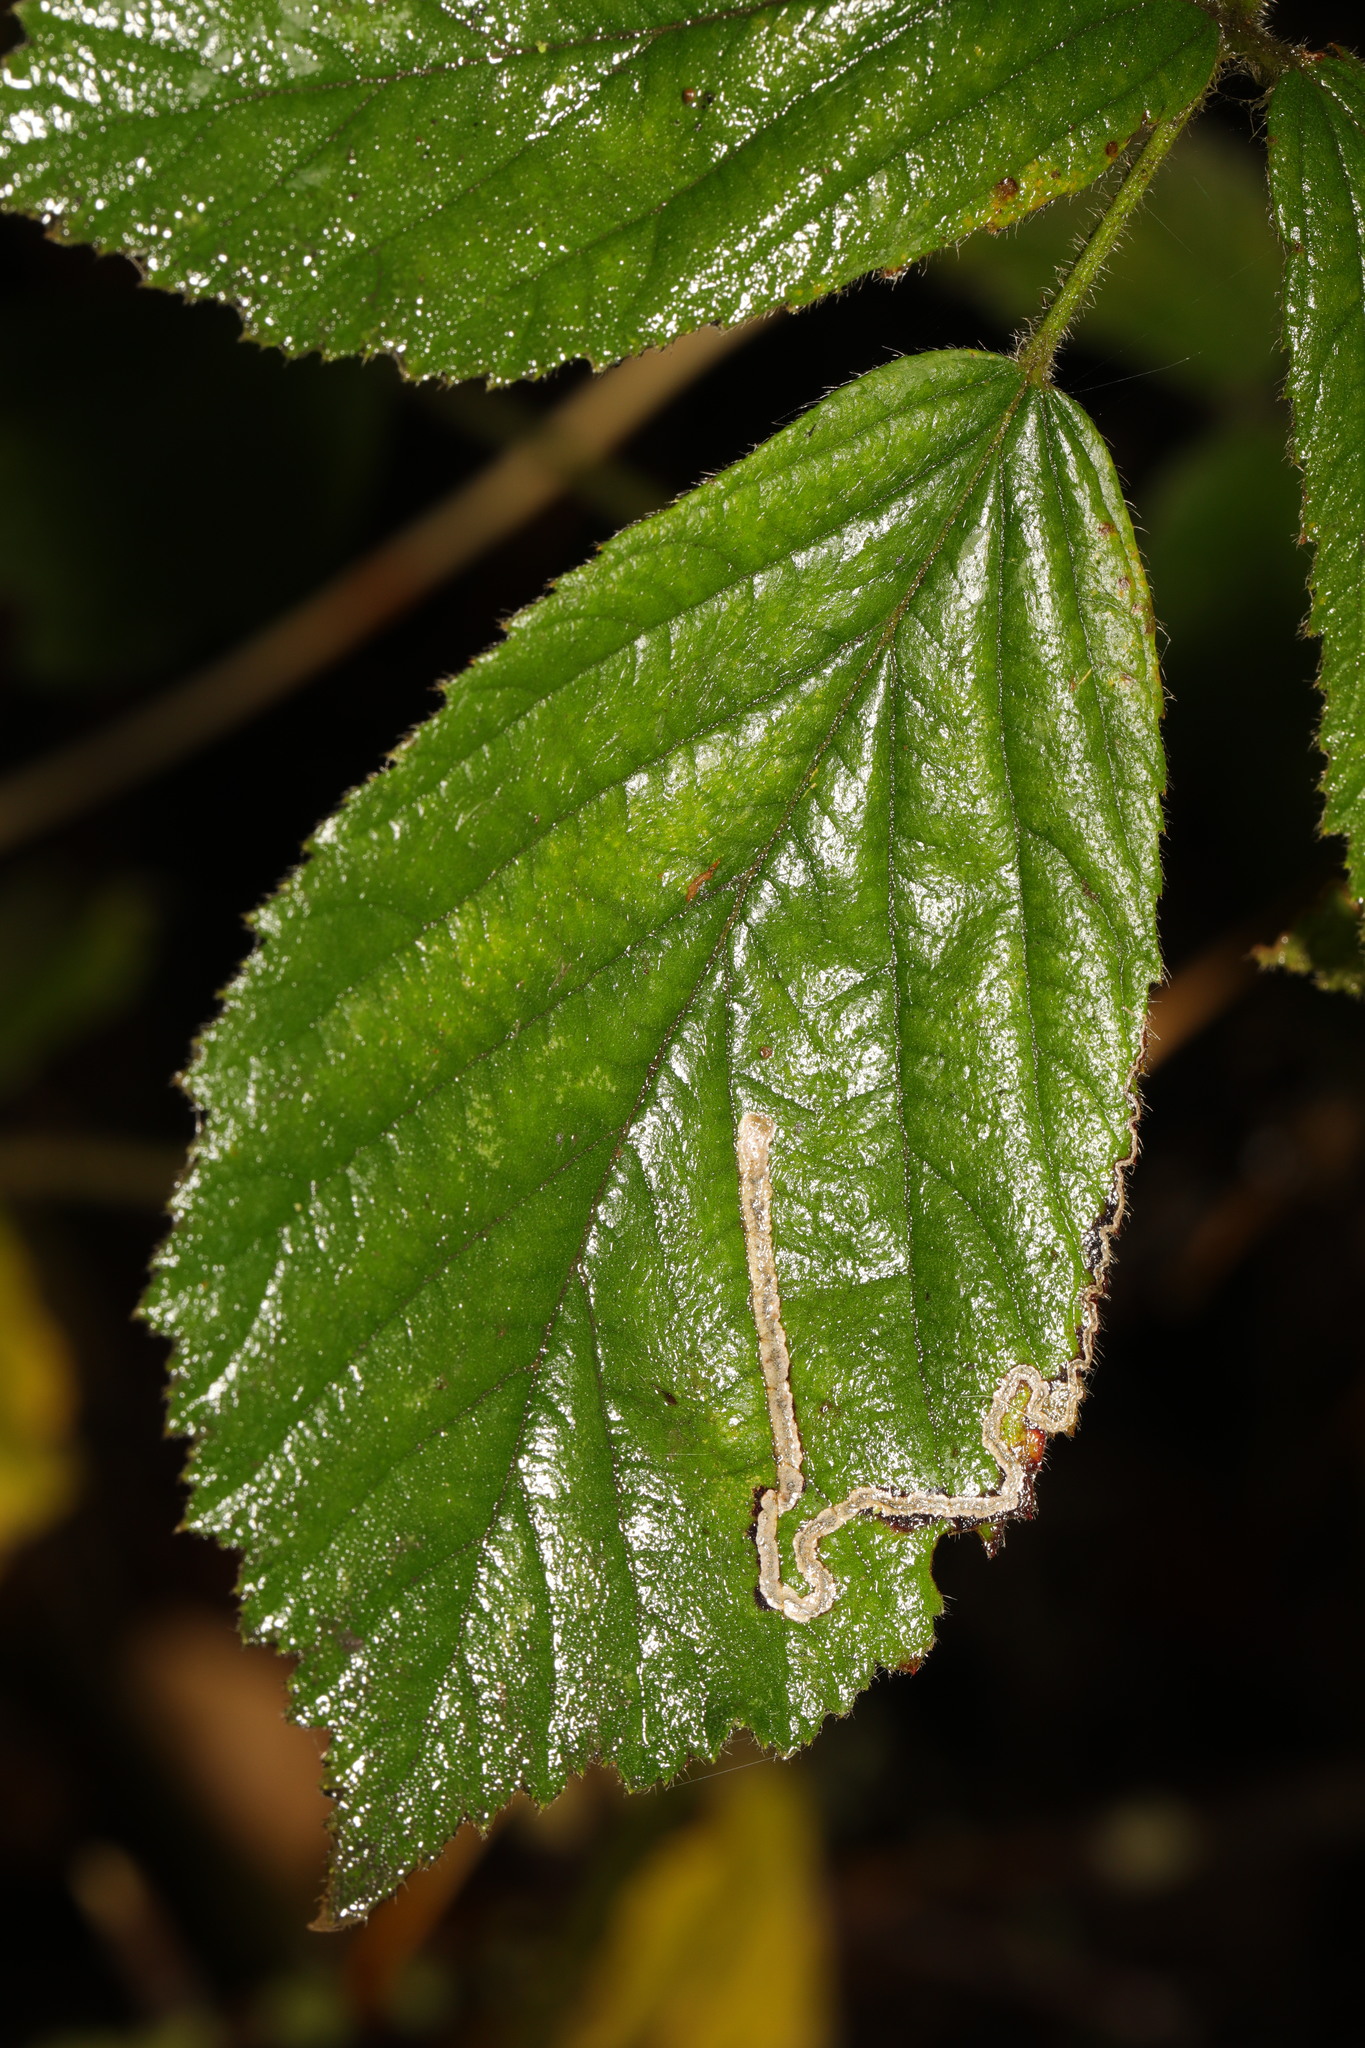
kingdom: Animalia
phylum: Arthropoda
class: Insecta
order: Lepidoptera
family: Nepticulidae
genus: Stigmella
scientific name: Stigmella aurella
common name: Golden pigmy
